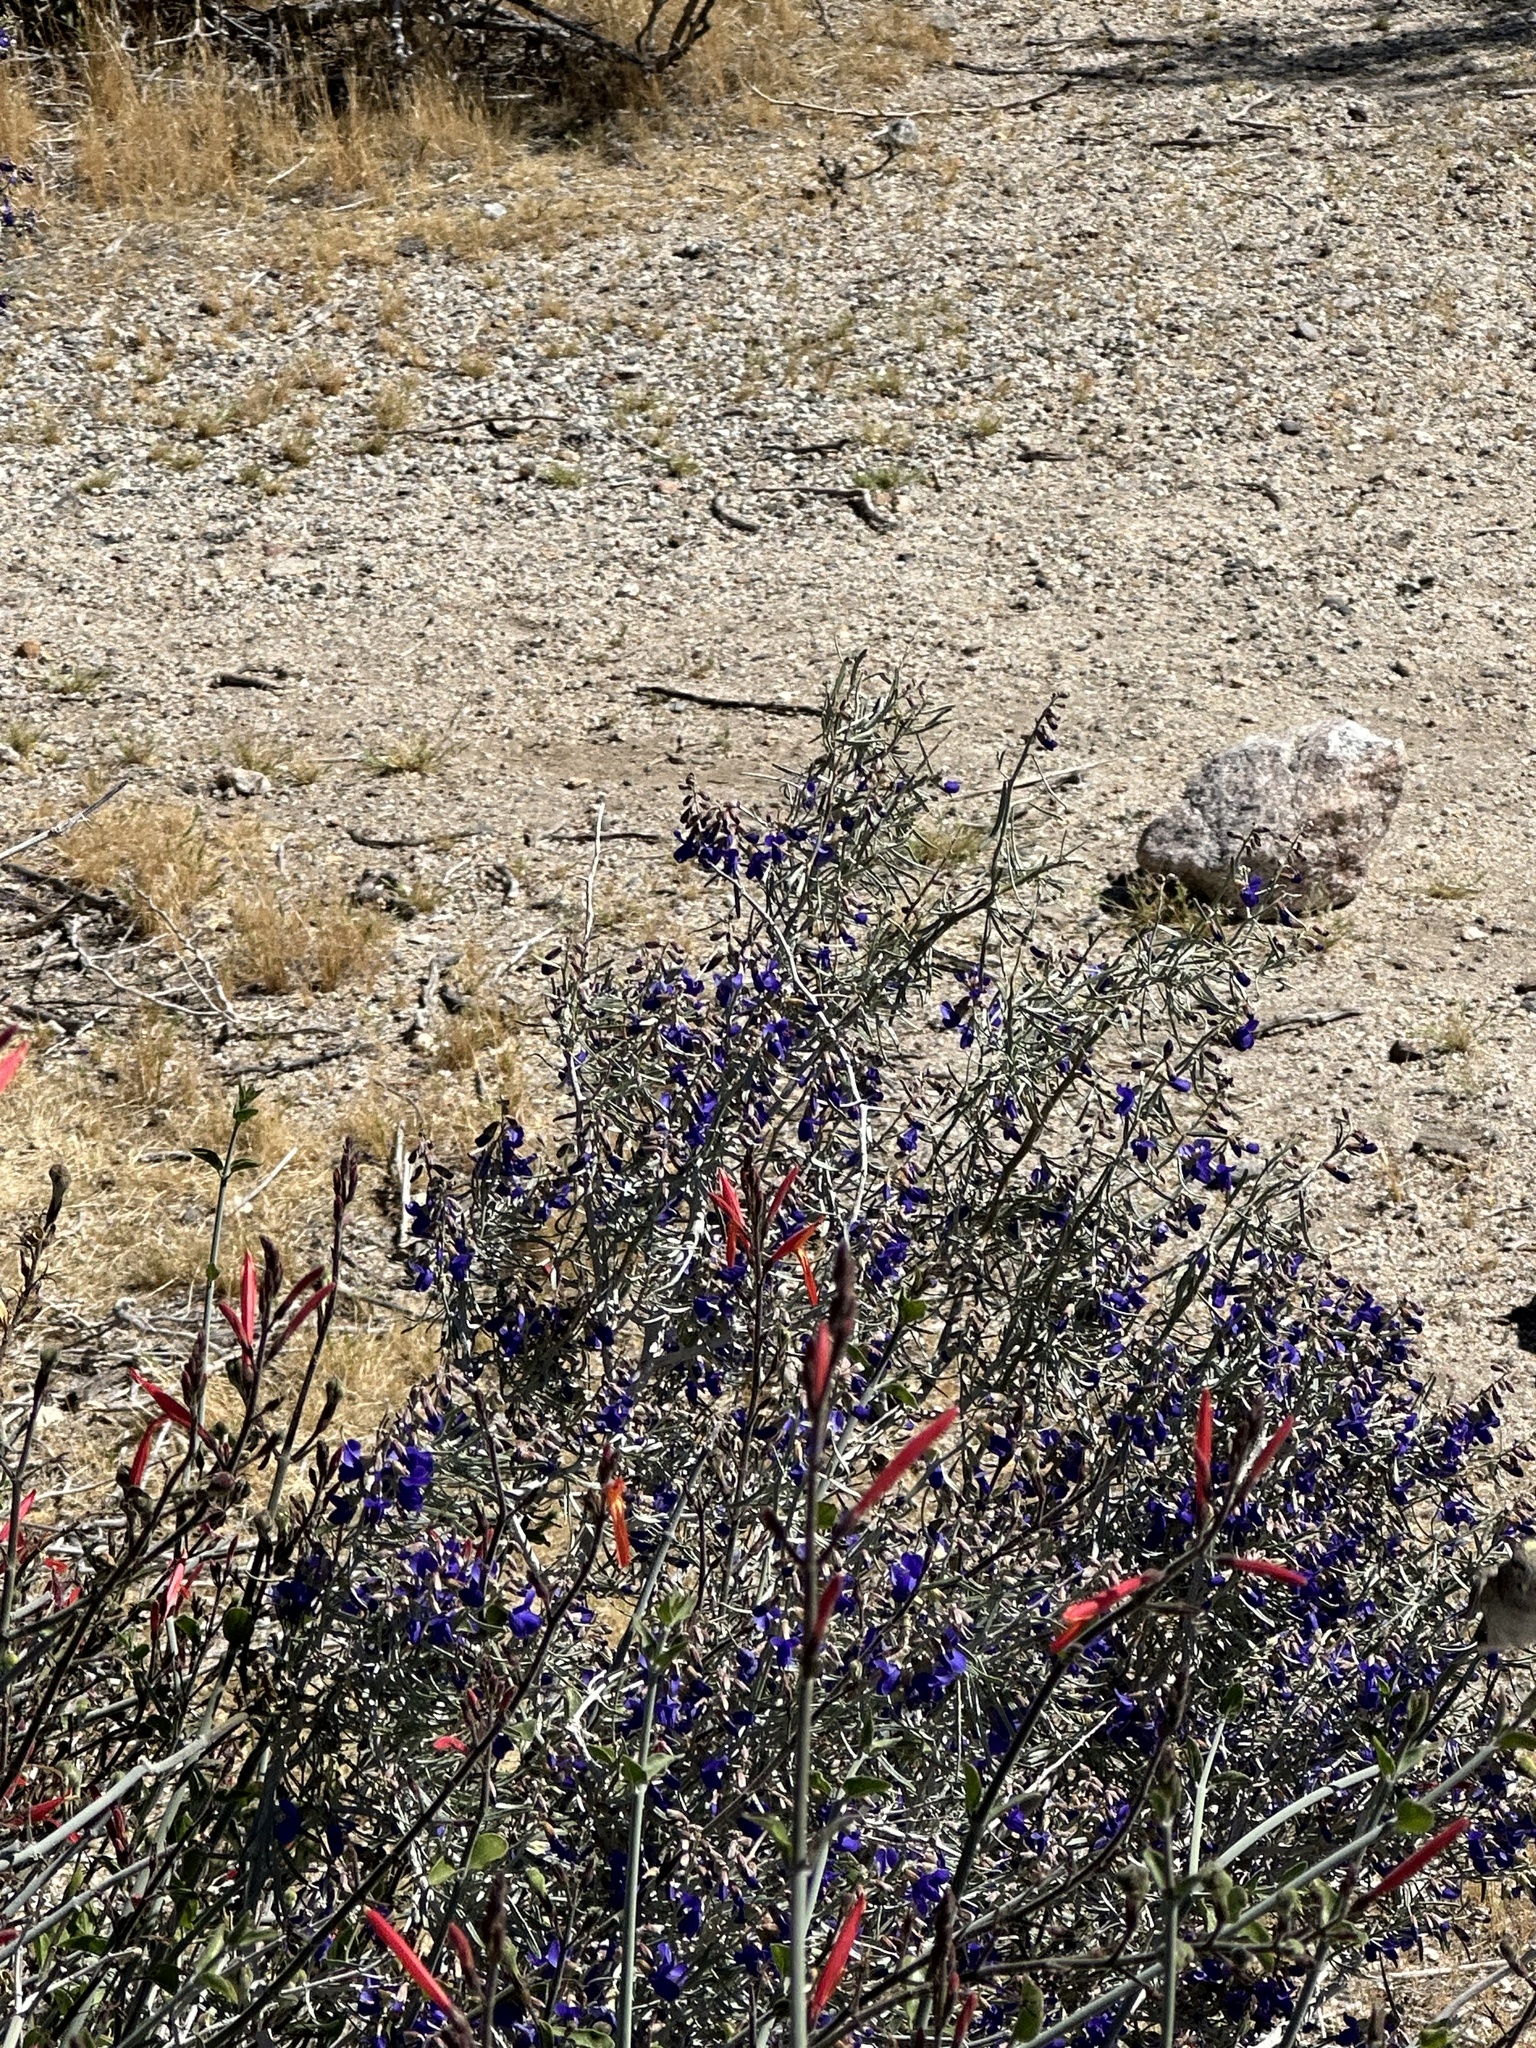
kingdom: Plantae
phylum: Tracheophyta
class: Magnoliopsida
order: Fabales
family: Fabaceae
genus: Psorothamnus
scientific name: Psorothamnus schottii
